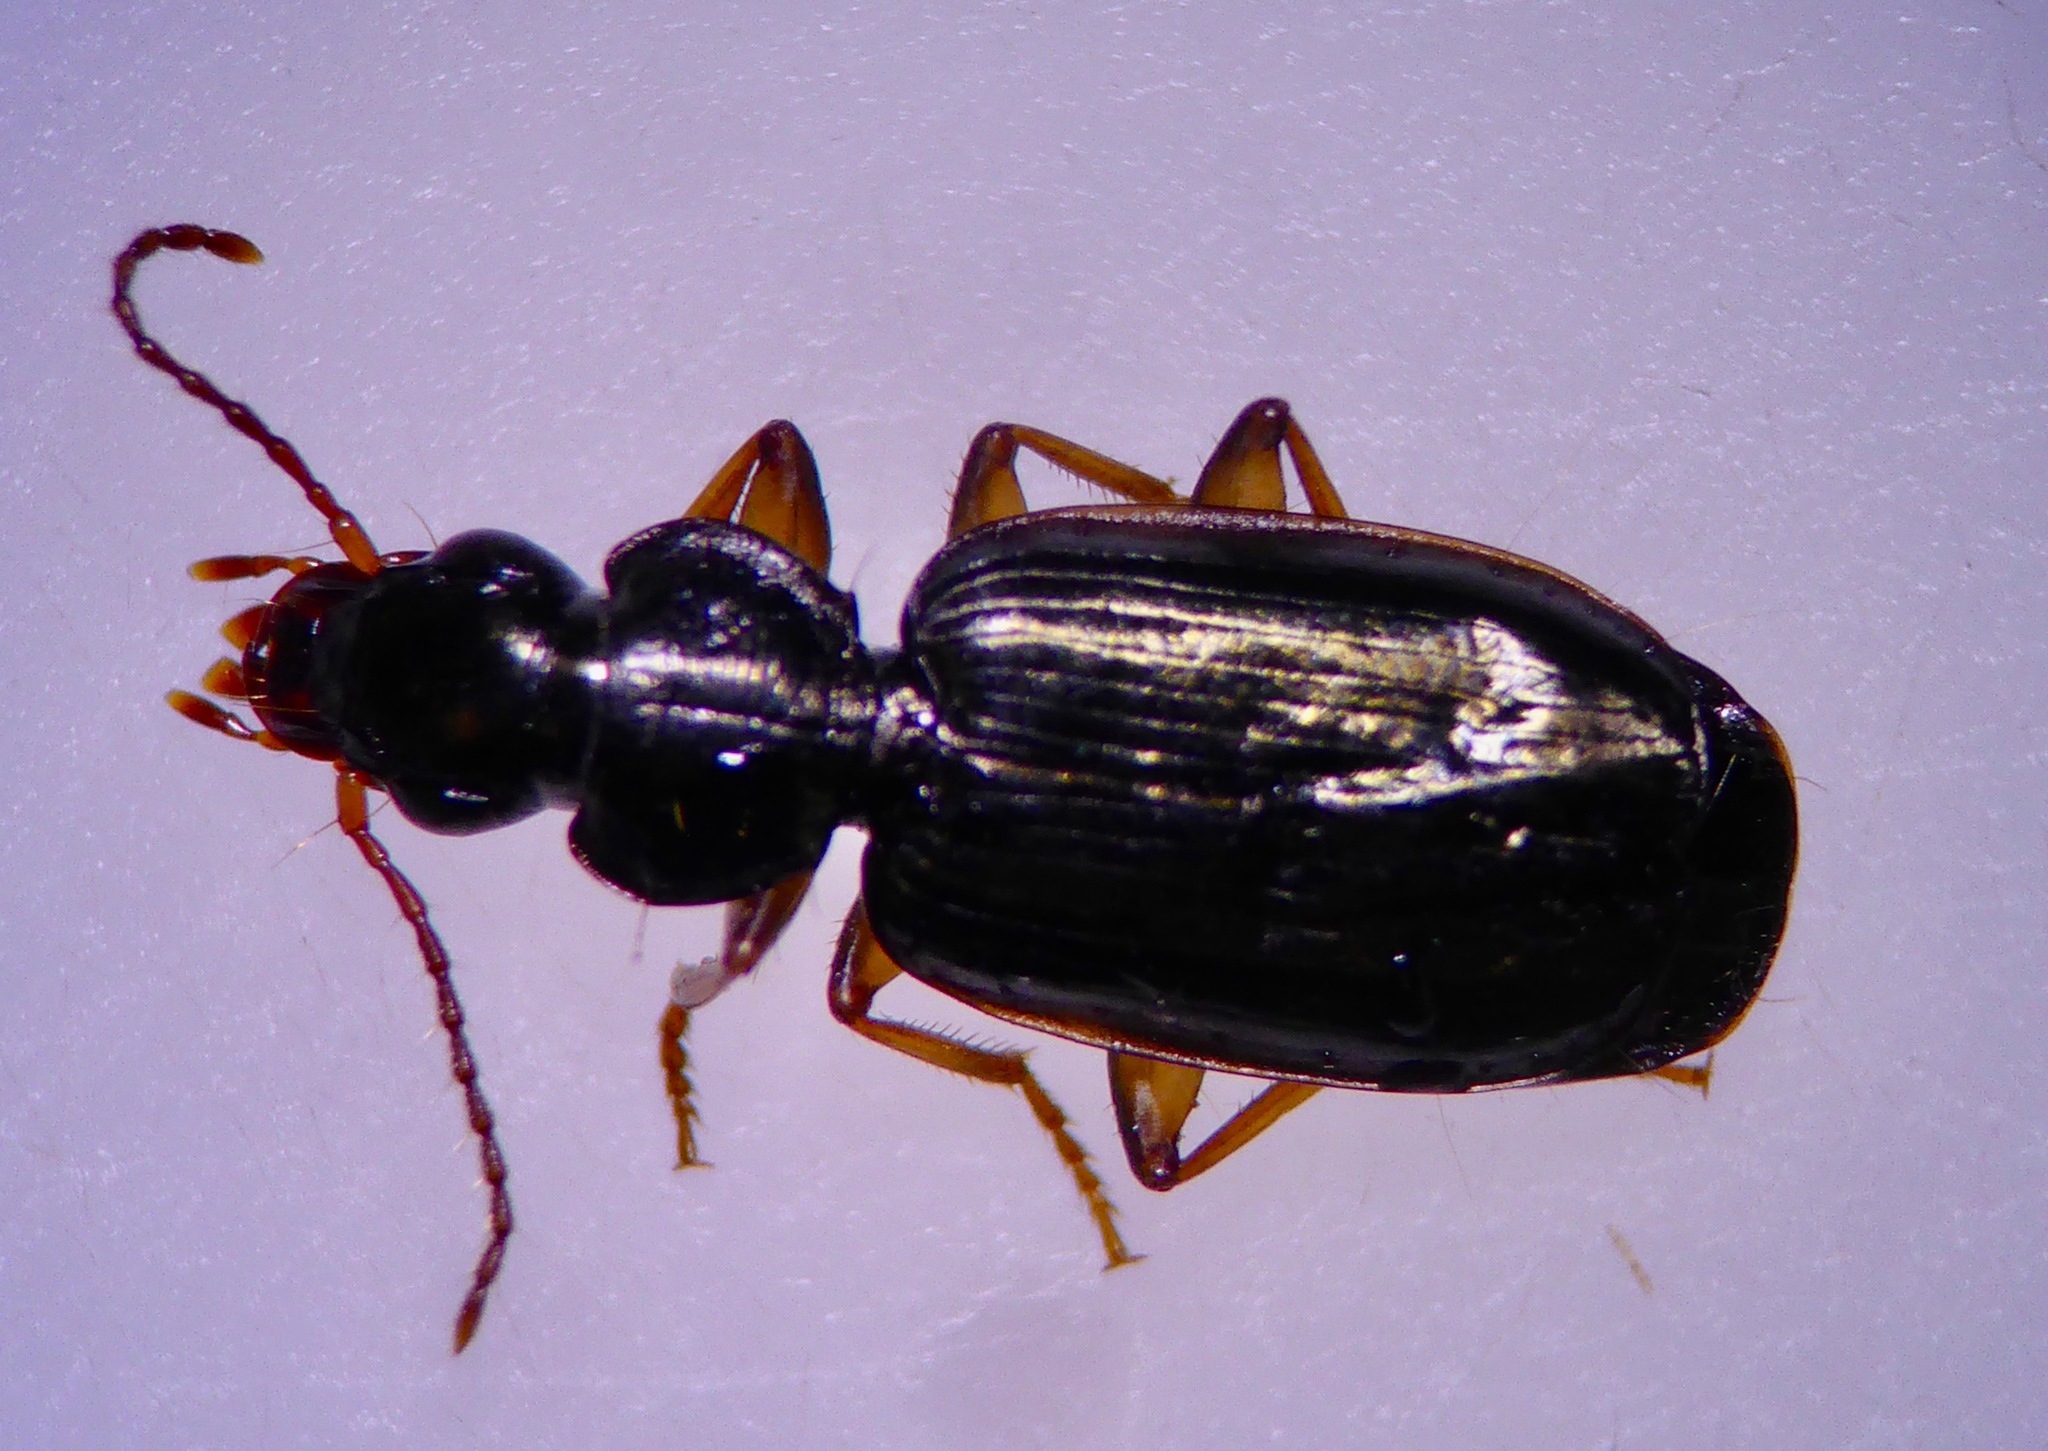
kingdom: Animalia
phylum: Arthropoda
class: Insecta
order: Coleoptera
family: Carabidae
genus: Anomotarus
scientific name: Anomotarus illawarrae
